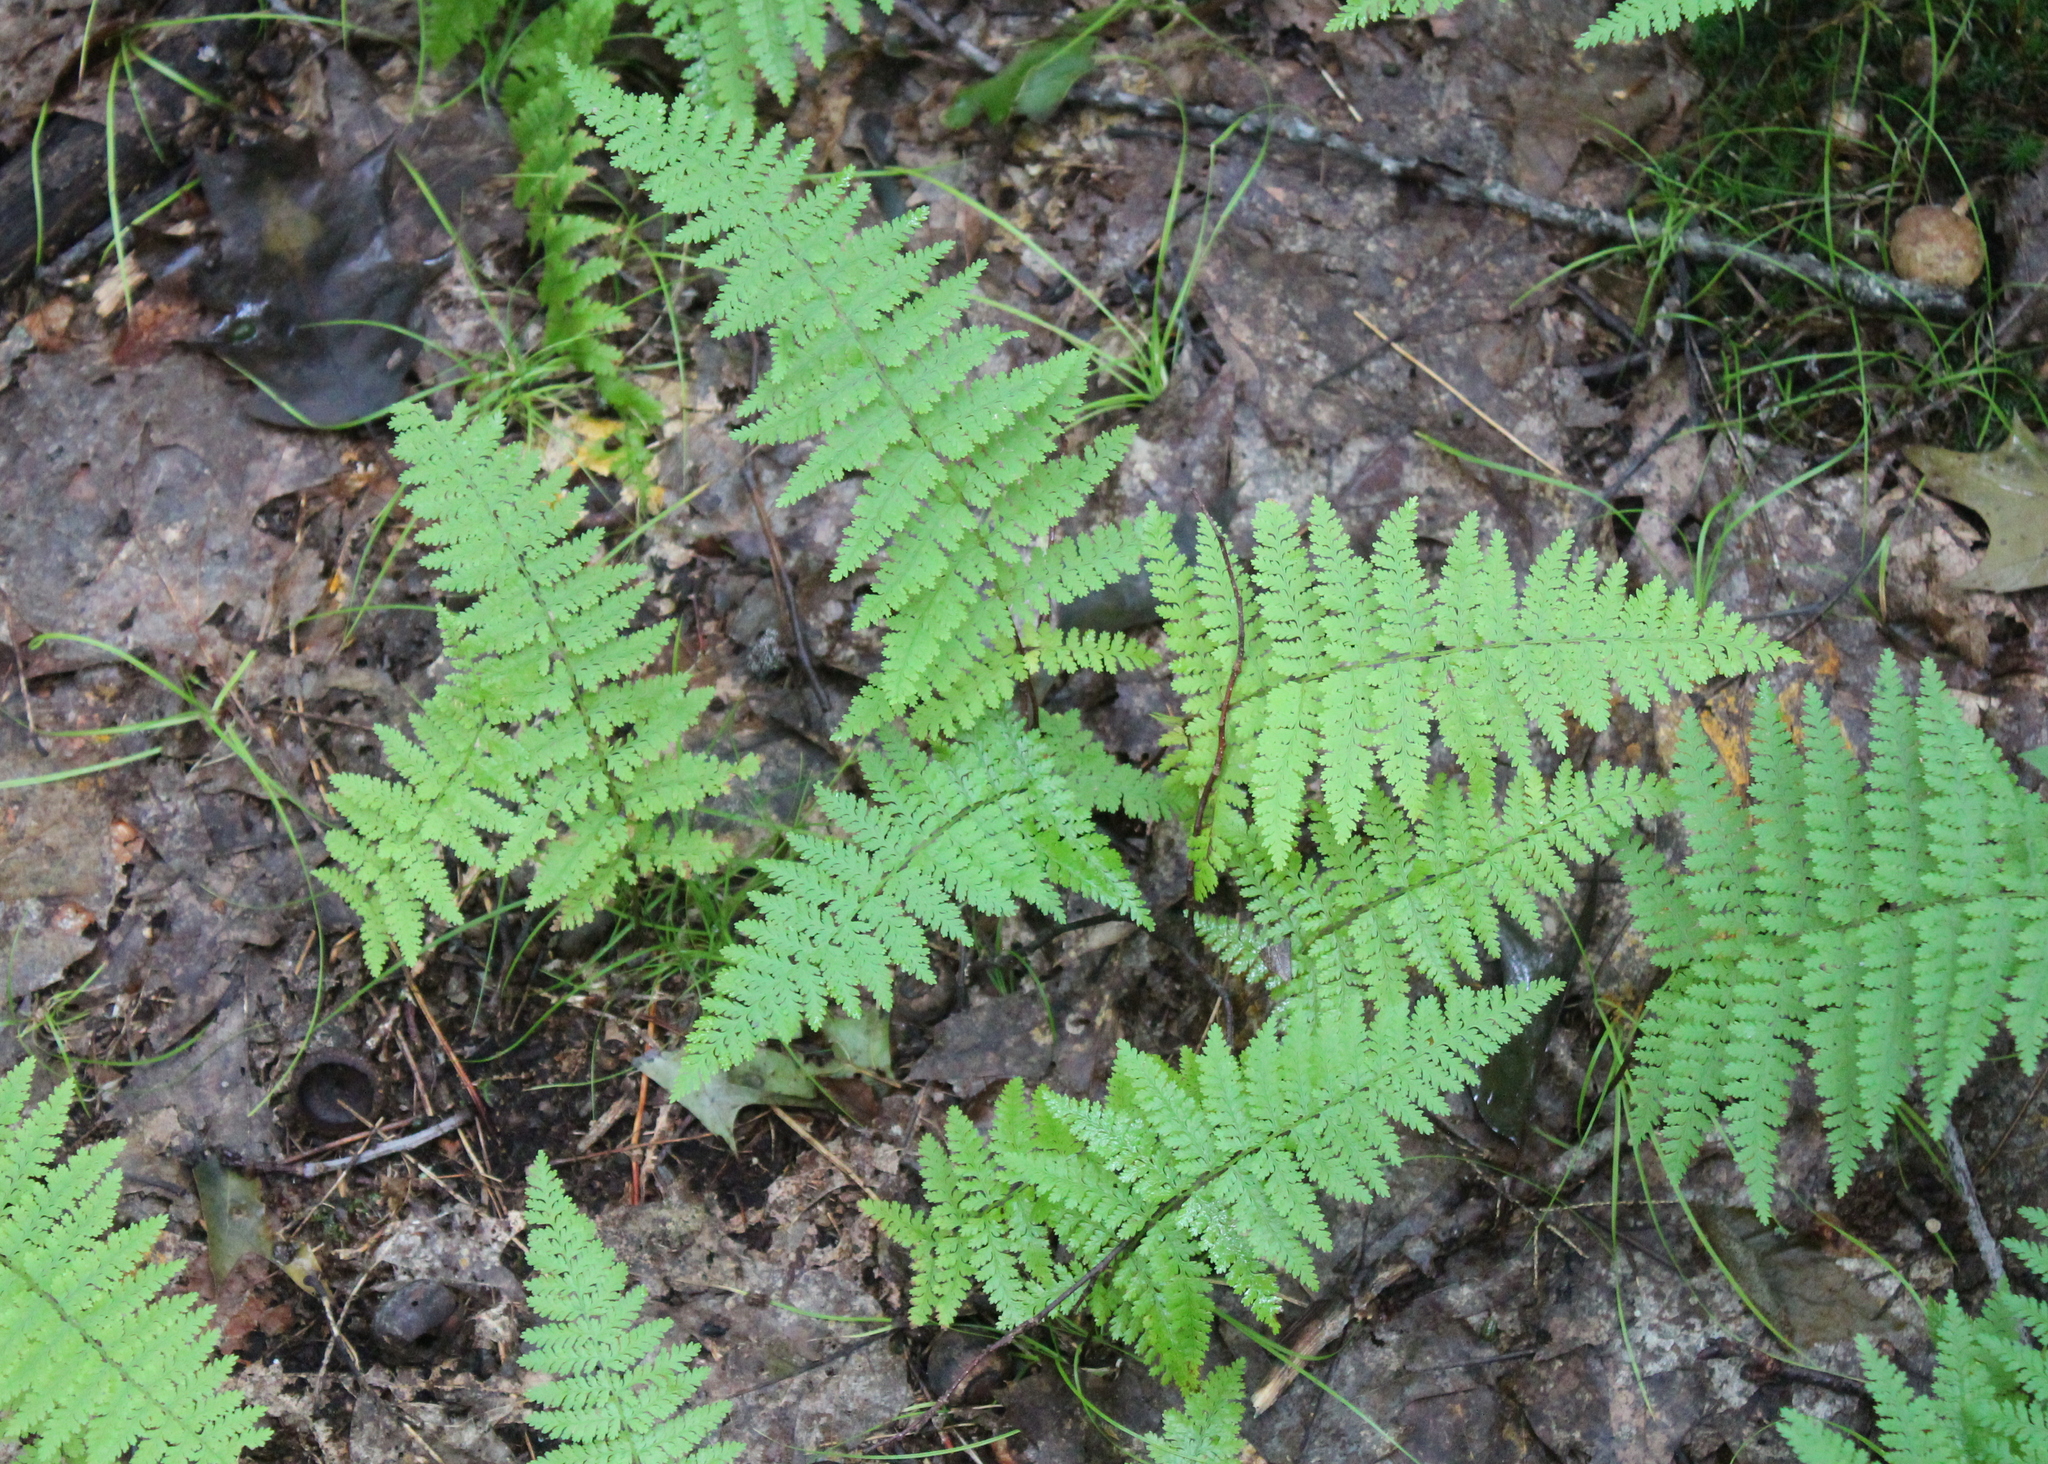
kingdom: Plantae
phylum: Tracheophyta
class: Polypodiopsida
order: Polypodiales
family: Dennstaedtiaceae
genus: Sitobolium
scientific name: Sitobolium punctilobum
